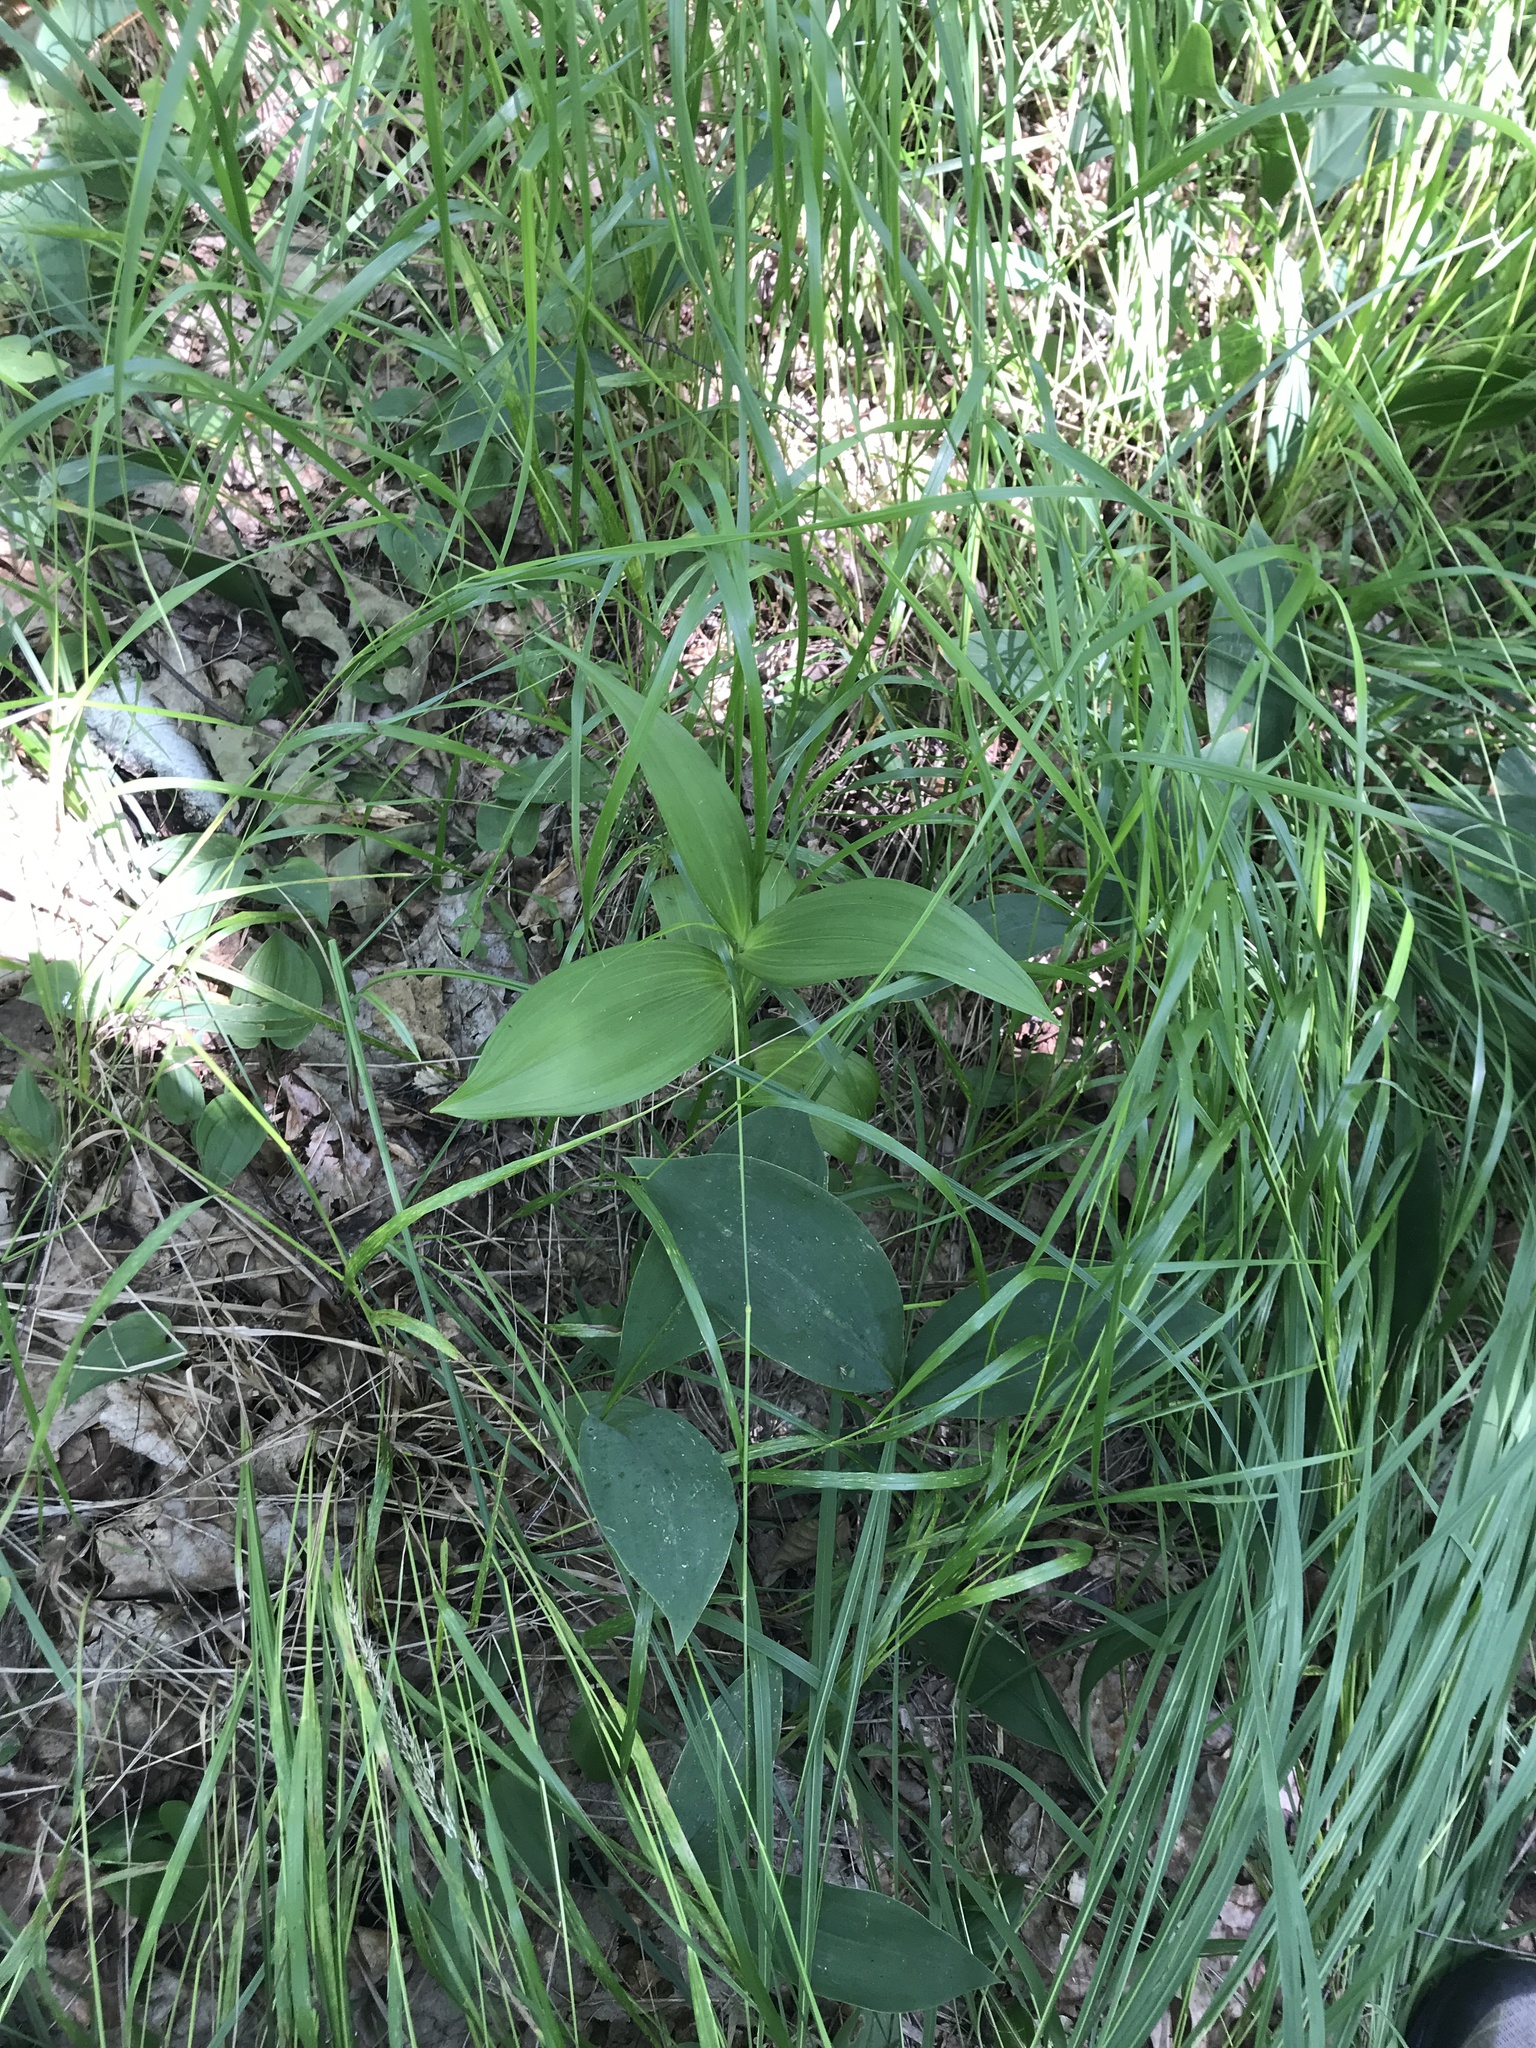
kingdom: Plantae
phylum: Tracheophyta
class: Liliopsida
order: Liliales
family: Melanthiaceae
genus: Veratrum
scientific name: Veratrum lobelianum
